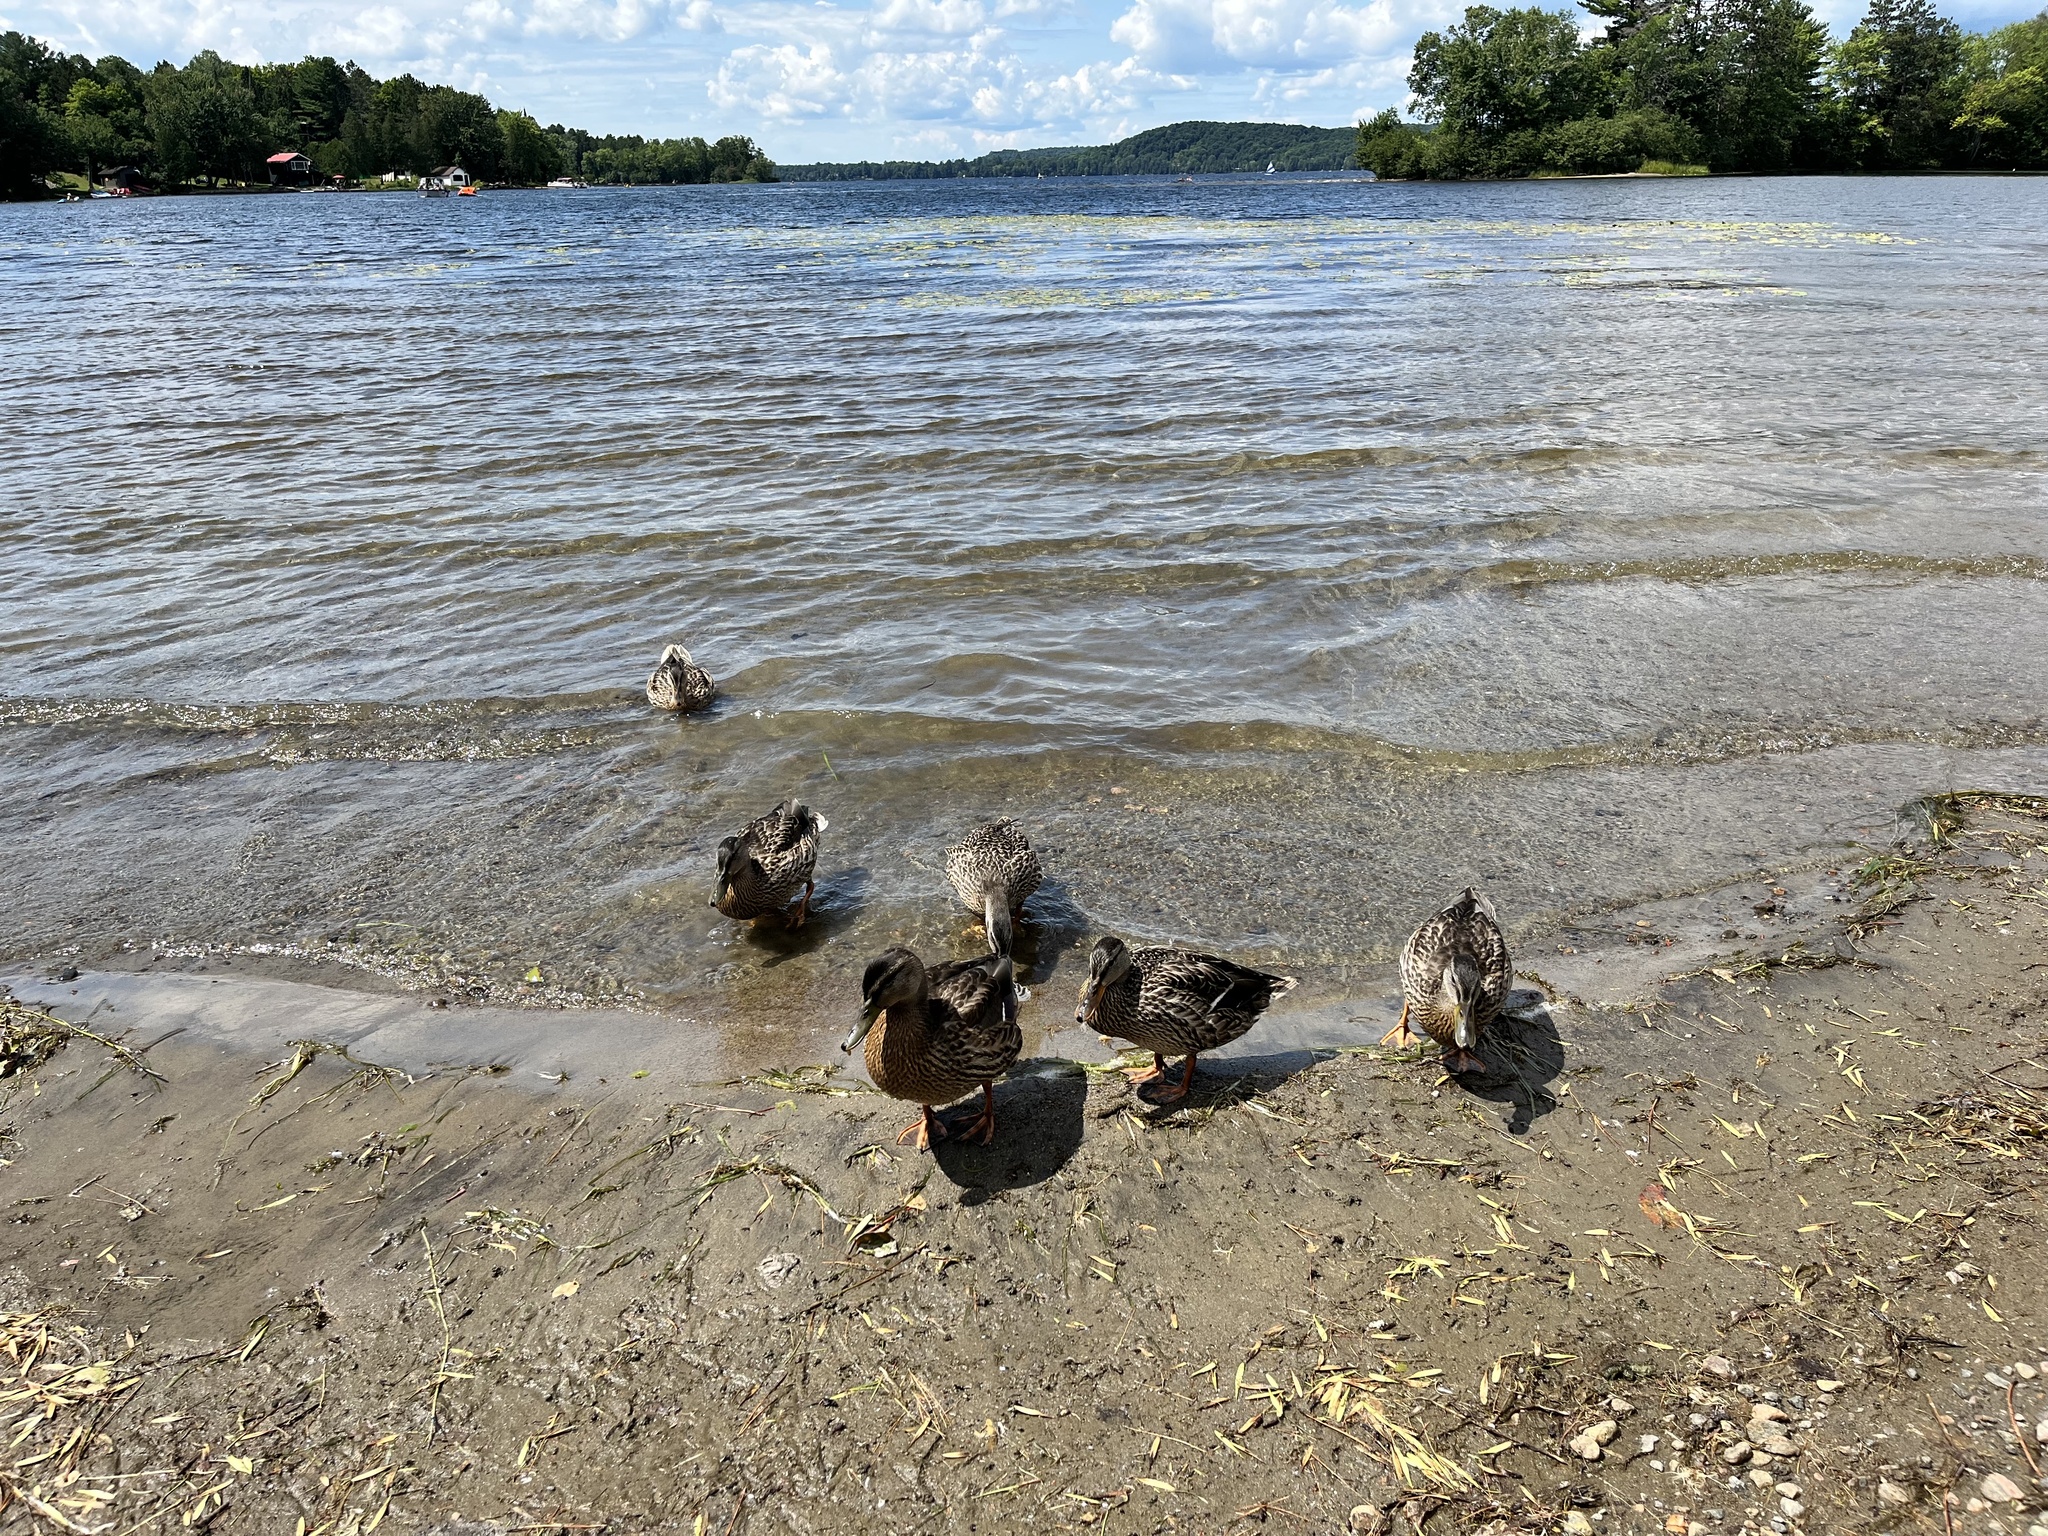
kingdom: Animalia
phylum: Chordata
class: Aves
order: Anseriformes
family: Anatidae
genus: Anas
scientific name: Anas platyrhynchos
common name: Mallard
